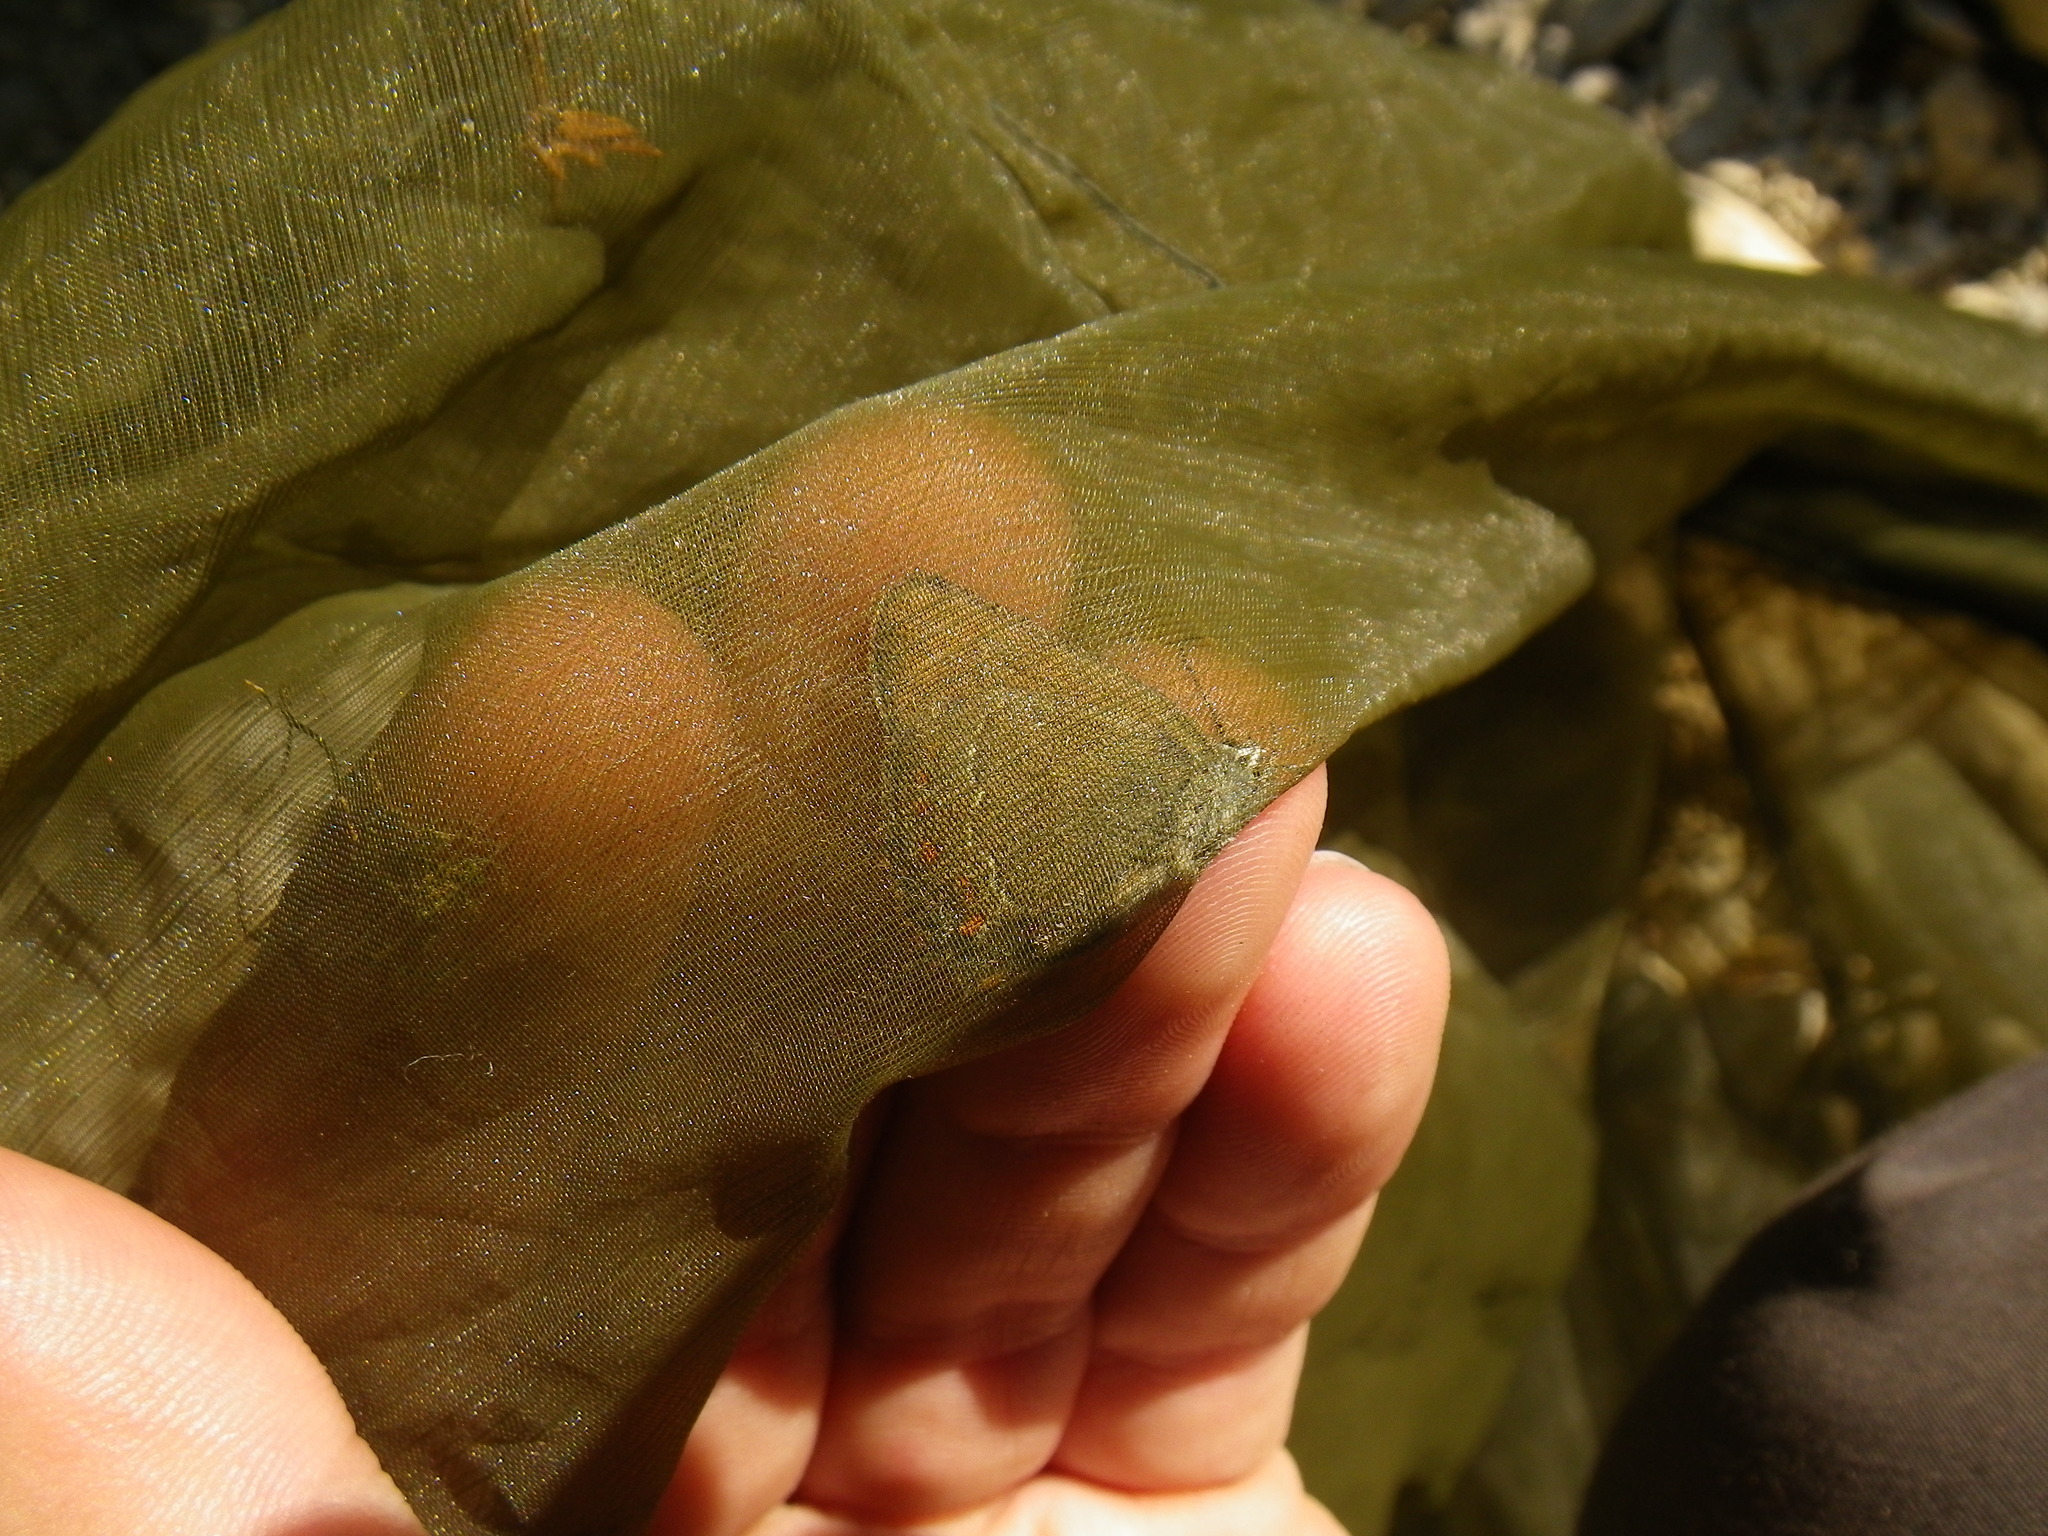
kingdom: Animalia
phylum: Arthropoda
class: Insecta
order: Lepidoptera
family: Lycaenidae
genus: Fixsenia
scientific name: Fixsenia esculi
